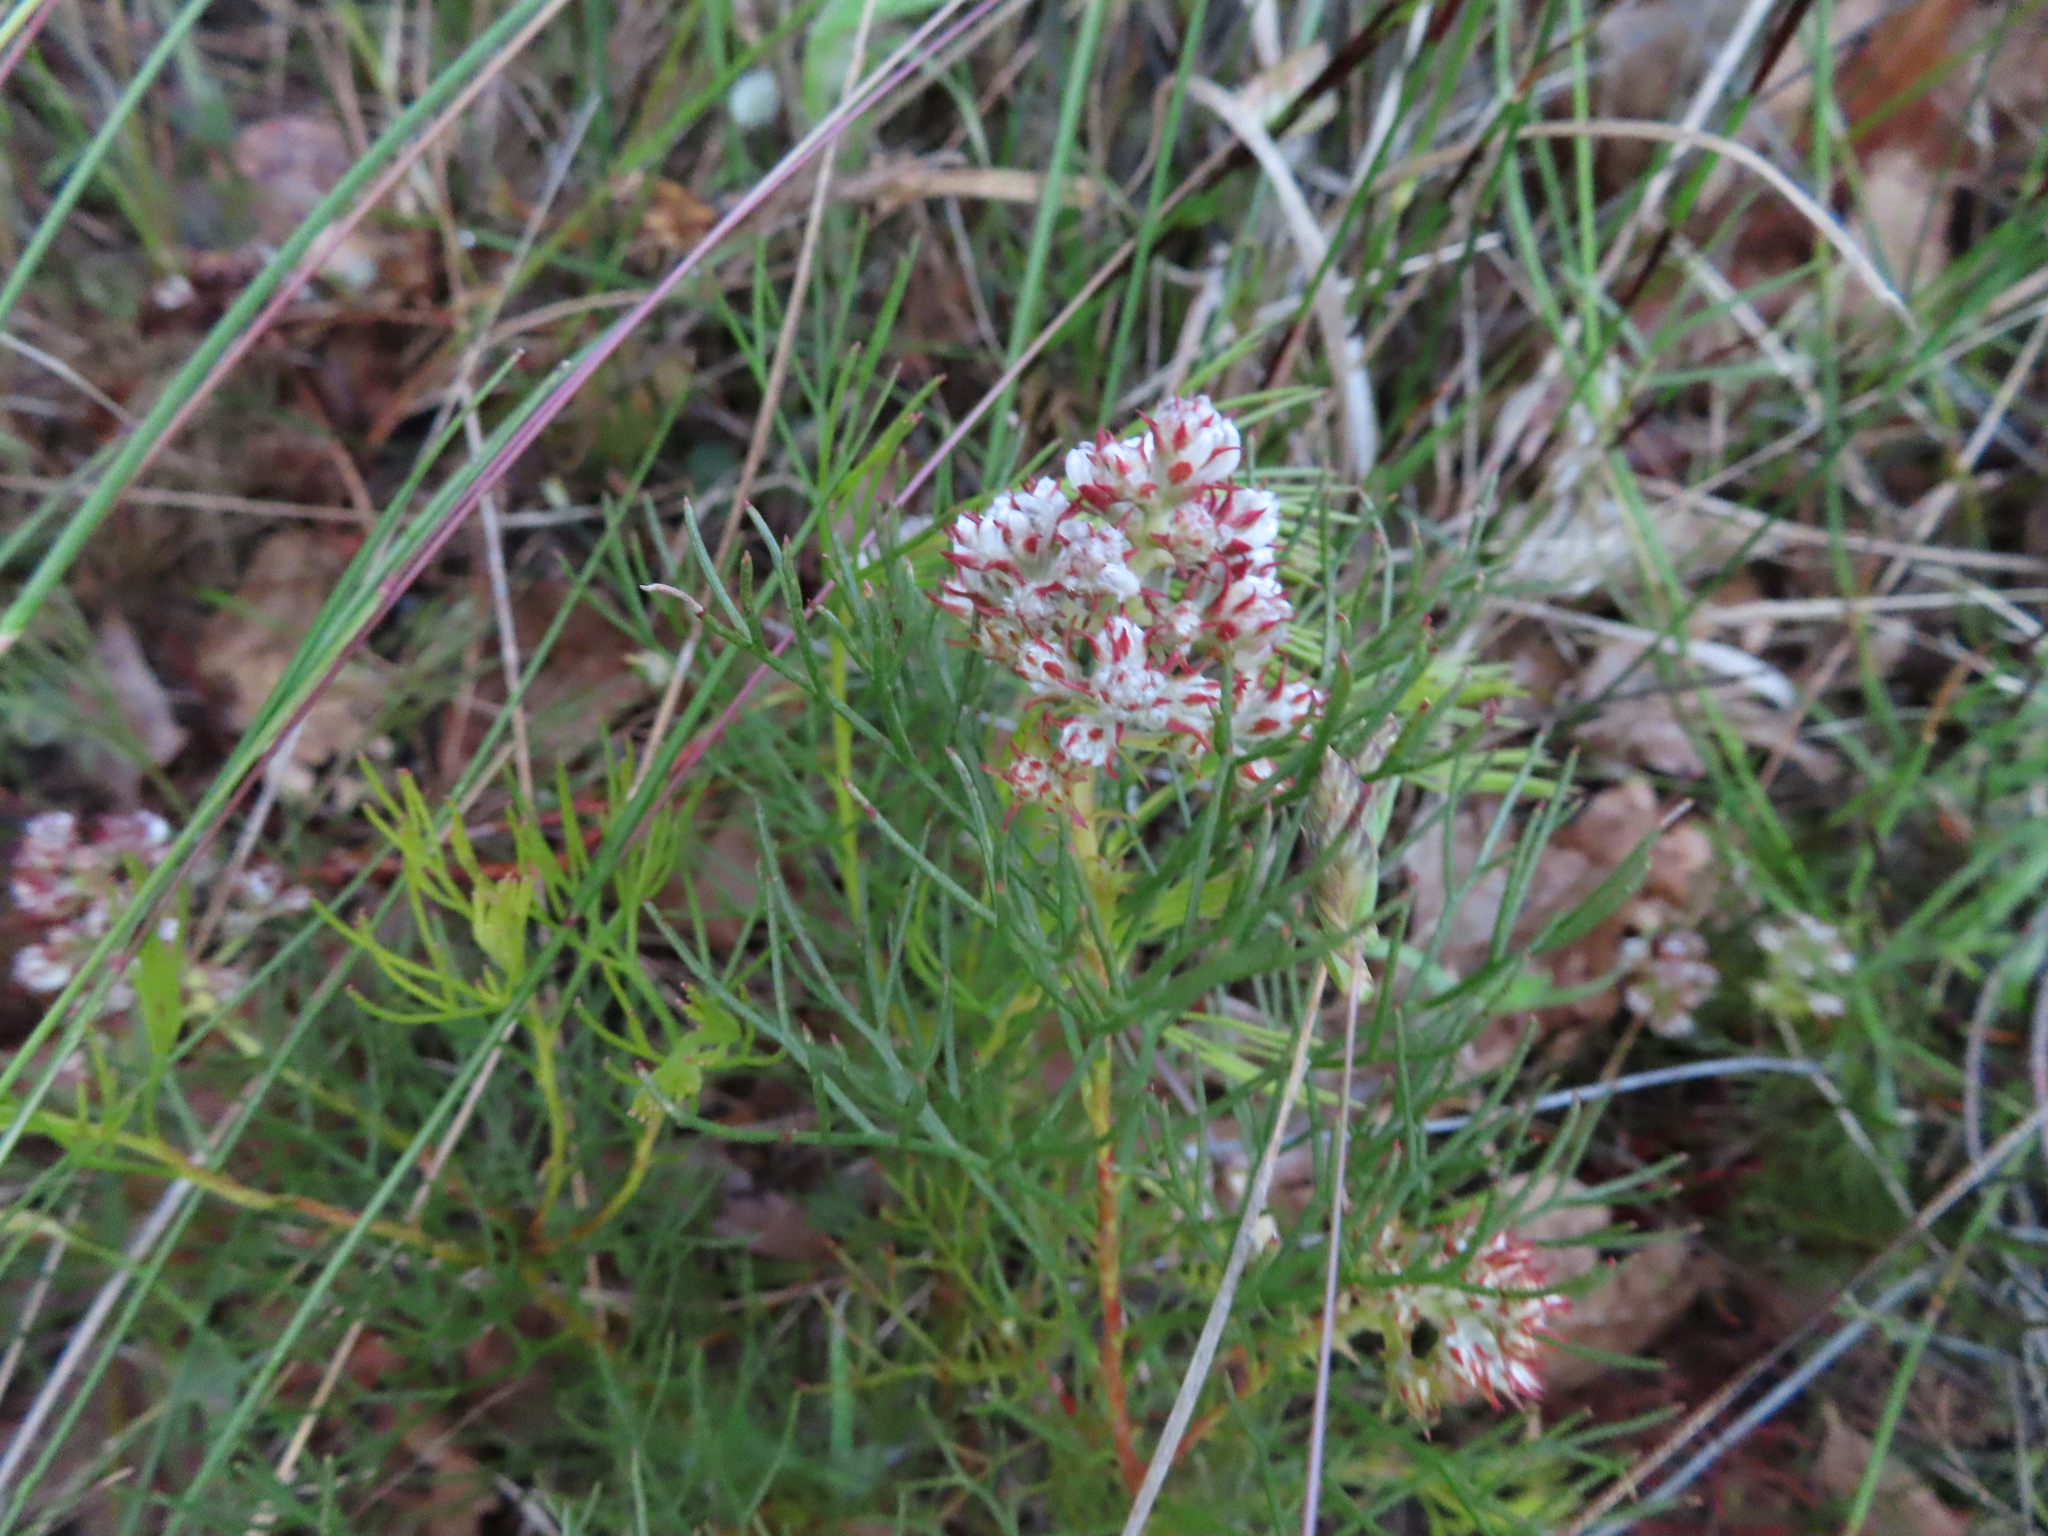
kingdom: Plantae
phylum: Tracheophyta
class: Magnoliopsida
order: Proteales
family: Proteaceae
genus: Serruria
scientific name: Serruria rubricaulis
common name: Red-stem spiderhead
